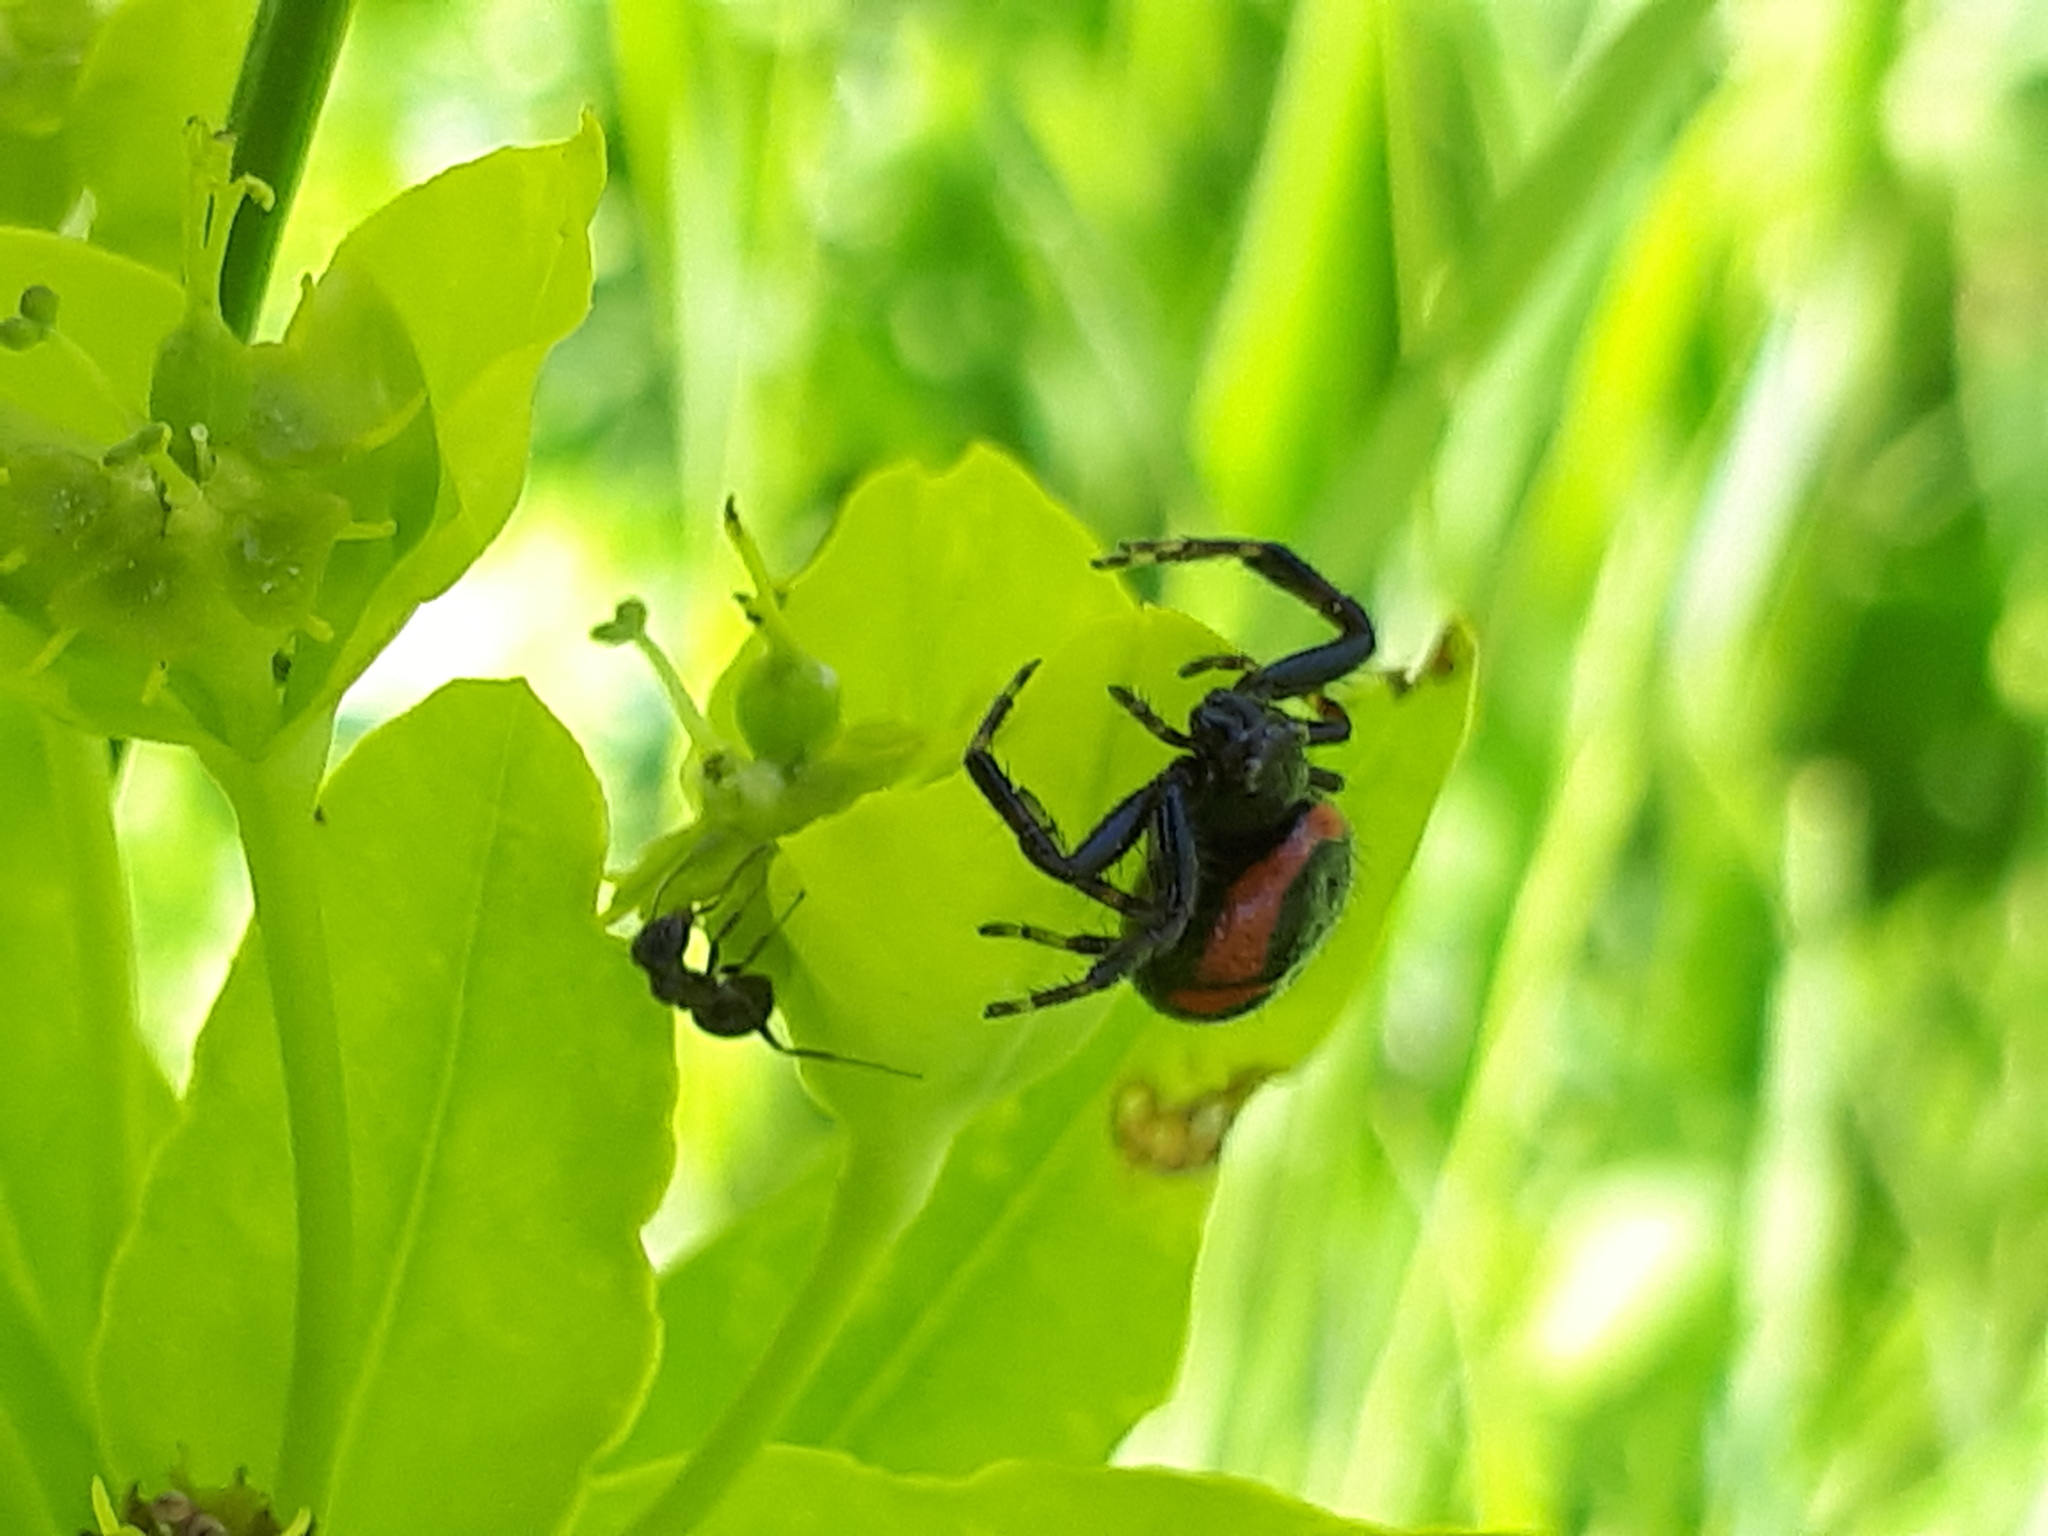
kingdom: Animalia
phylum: Arthropoda
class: Arachnida
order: Araneae
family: Thomisidae
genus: Synema
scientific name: Synema globosum
